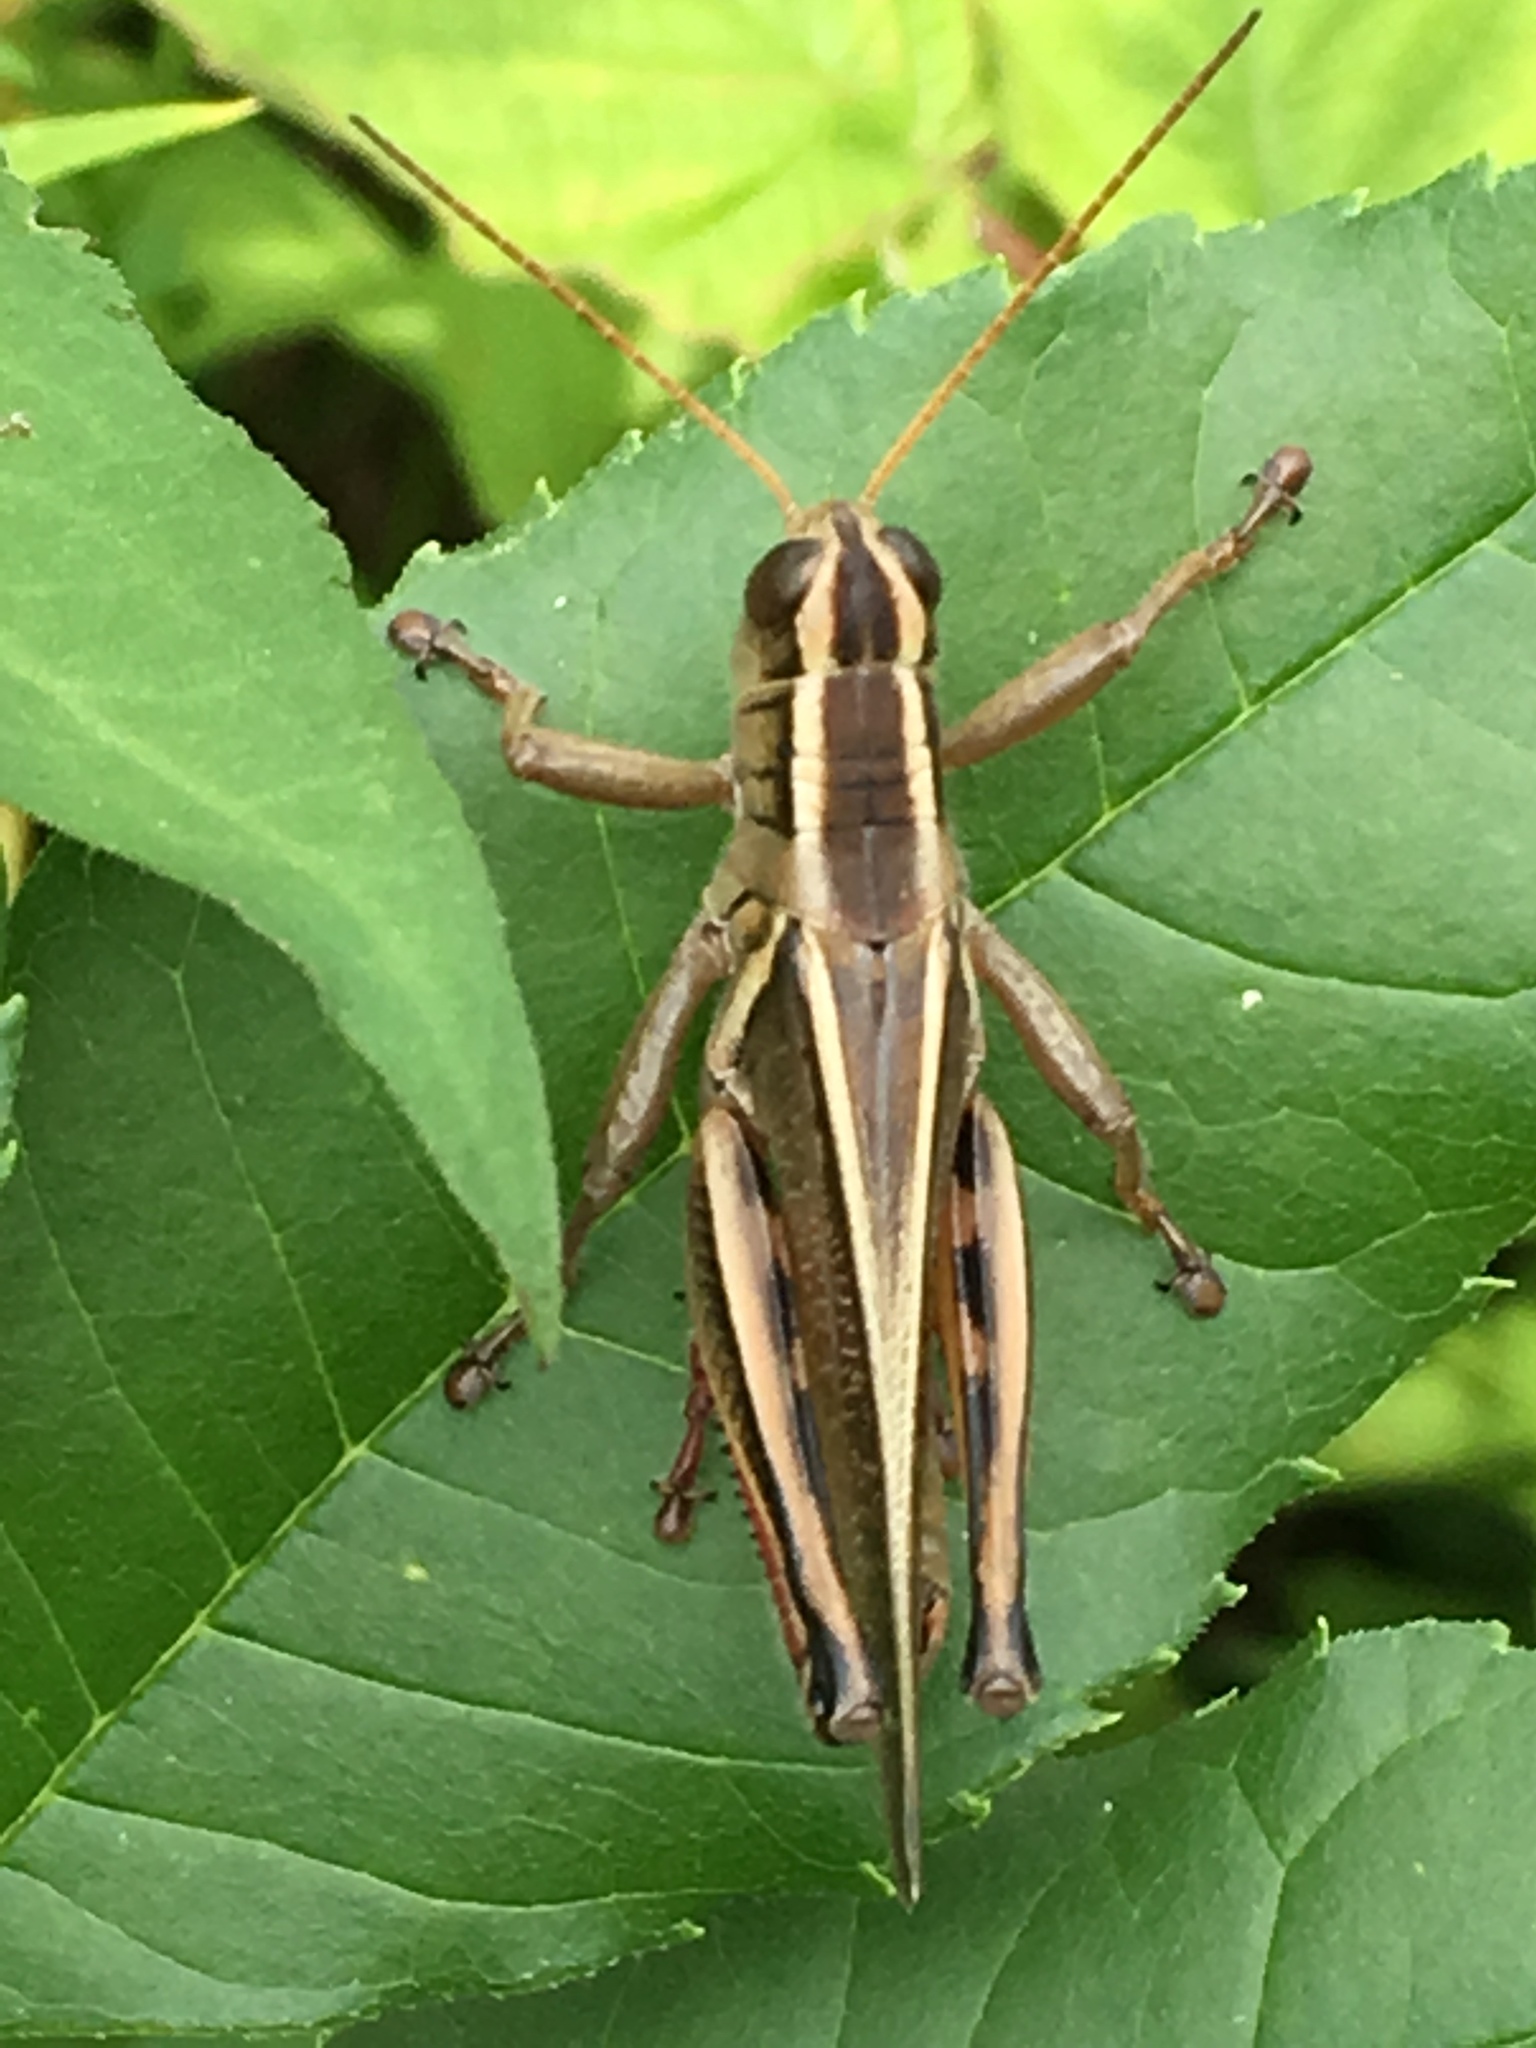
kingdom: Animalia
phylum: Arthropoda
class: Insecta
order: Orthoptera
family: Acrididae
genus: Melanoplus
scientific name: Melanoplus bivittatus
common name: Two-striped grasshopper
